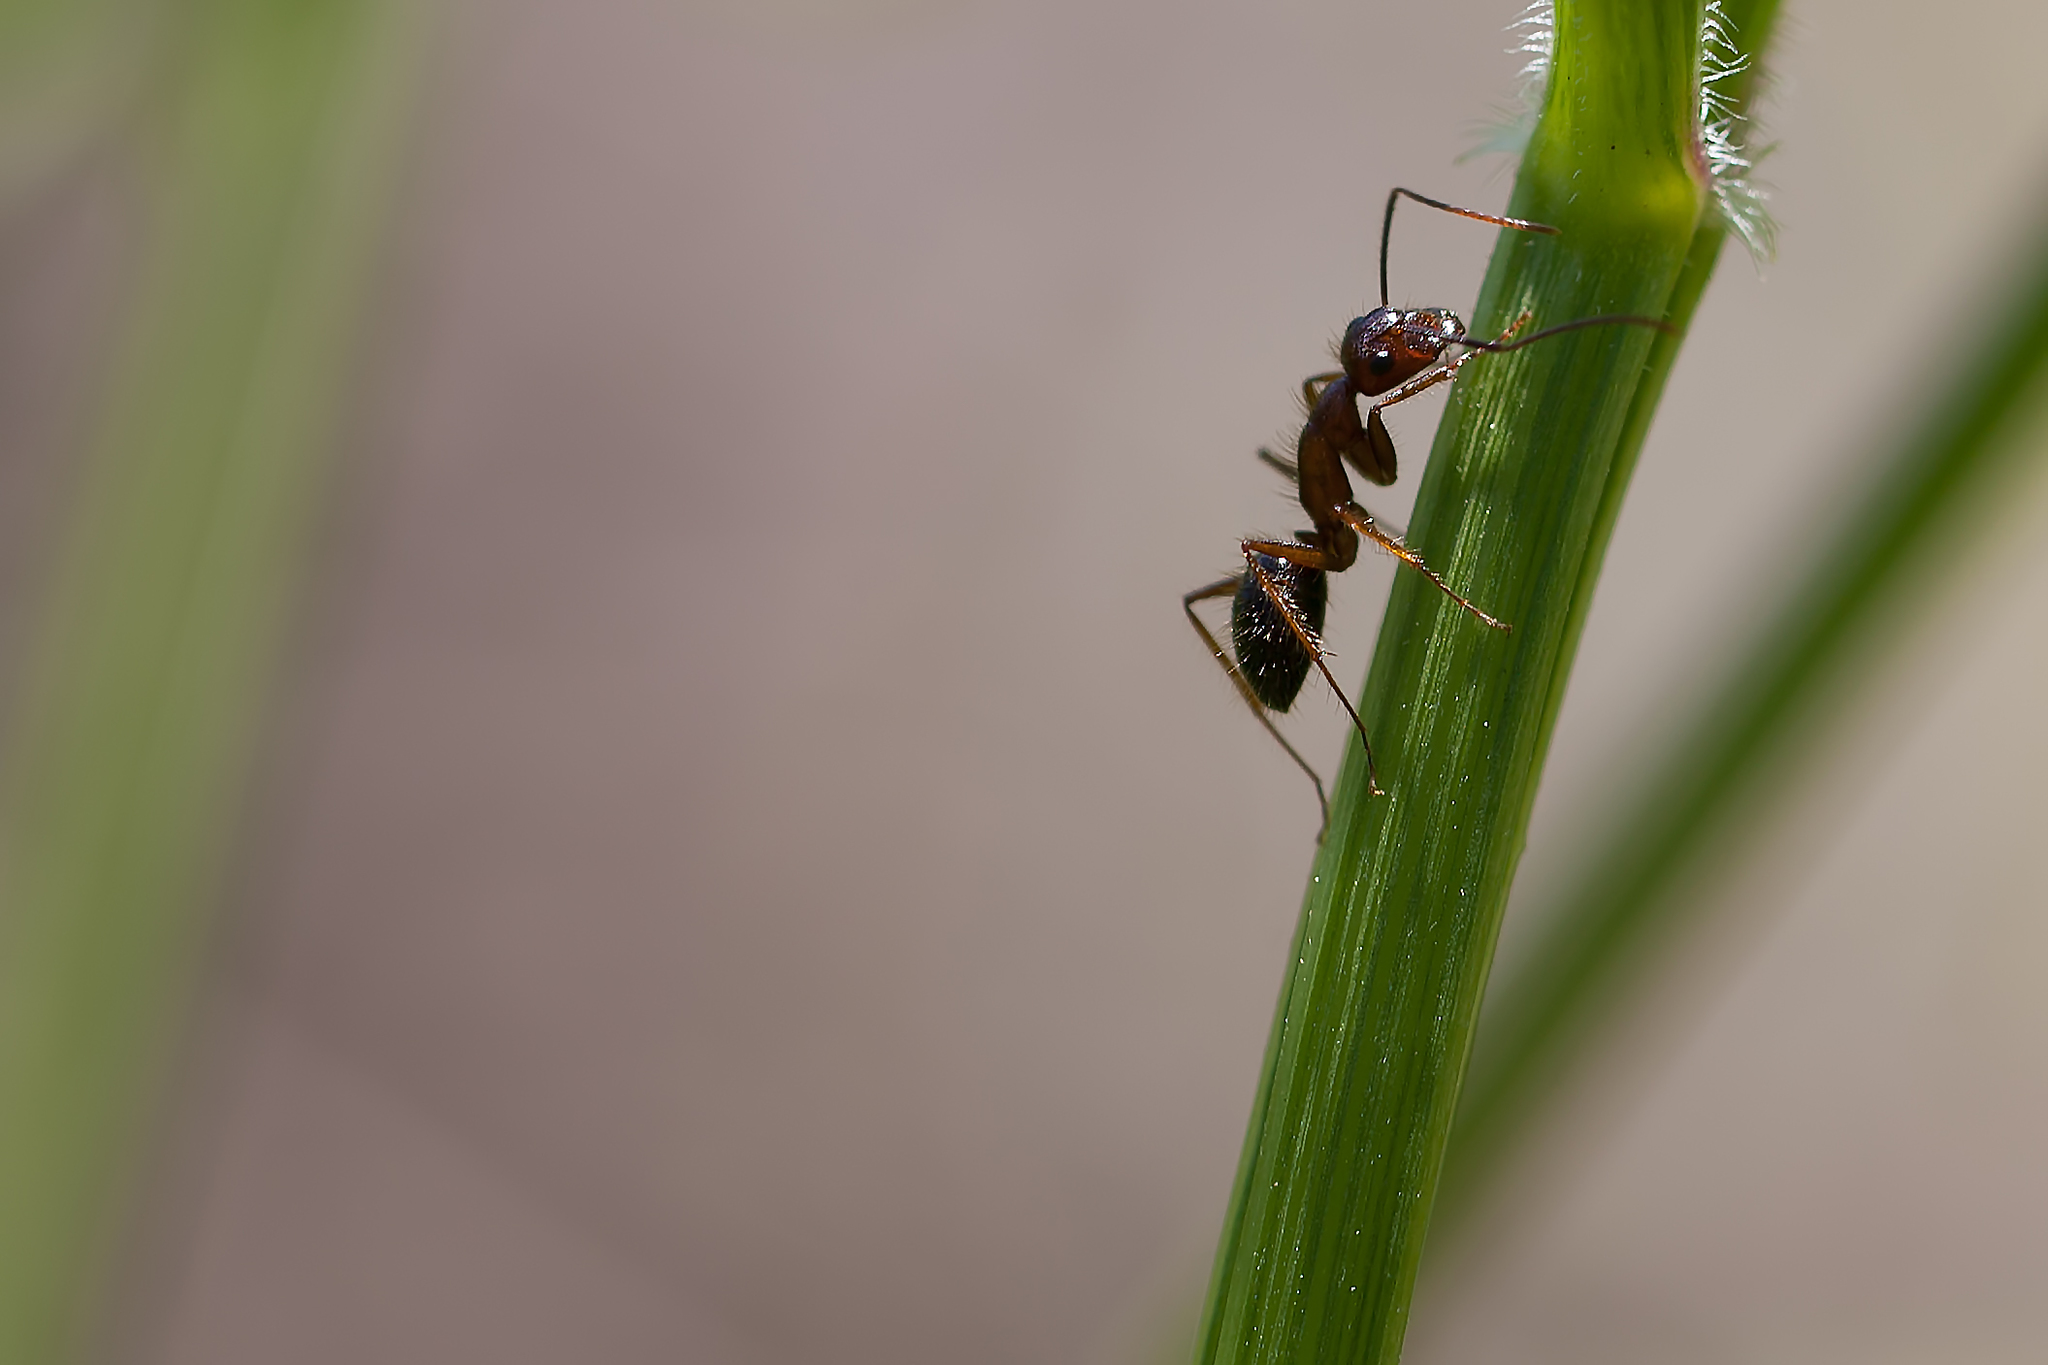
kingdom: Animalia
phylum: Arthropoda
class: Insecta
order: Hymenoptera
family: Formicidae
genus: Camponotus
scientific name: Camponotus floridanus
